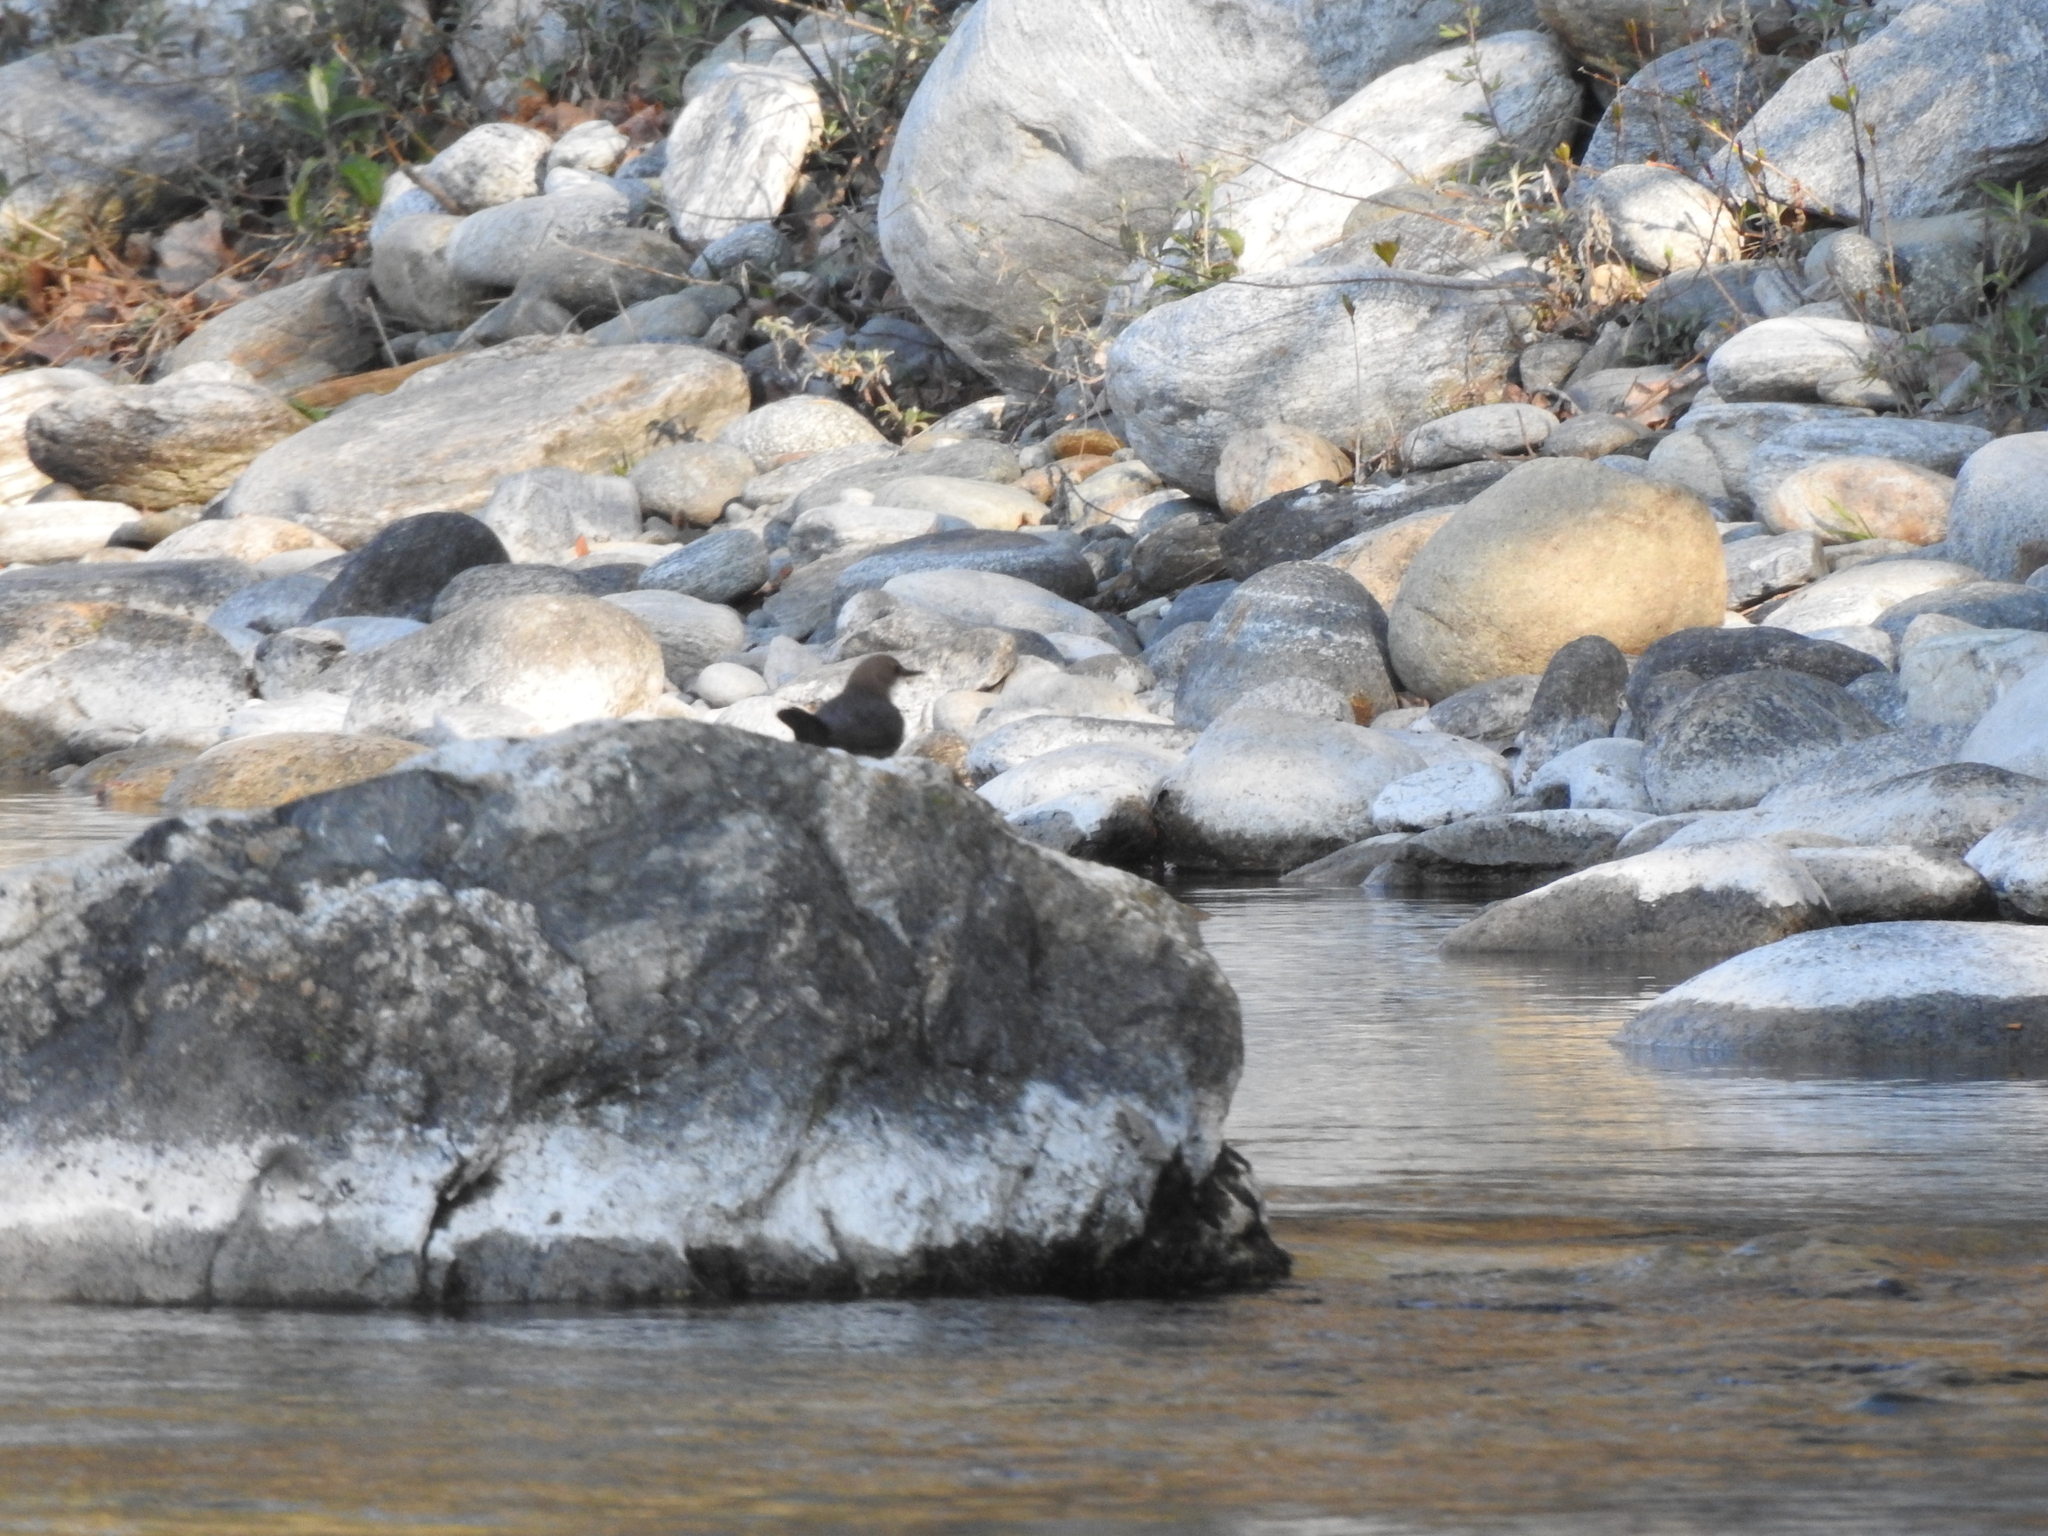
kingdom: Animalia
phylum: Chordata
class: Aves
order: Passeriformes
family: Cinclidae
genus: Cinclus
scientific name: Cinclus cinclus
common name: White-throated dipper
